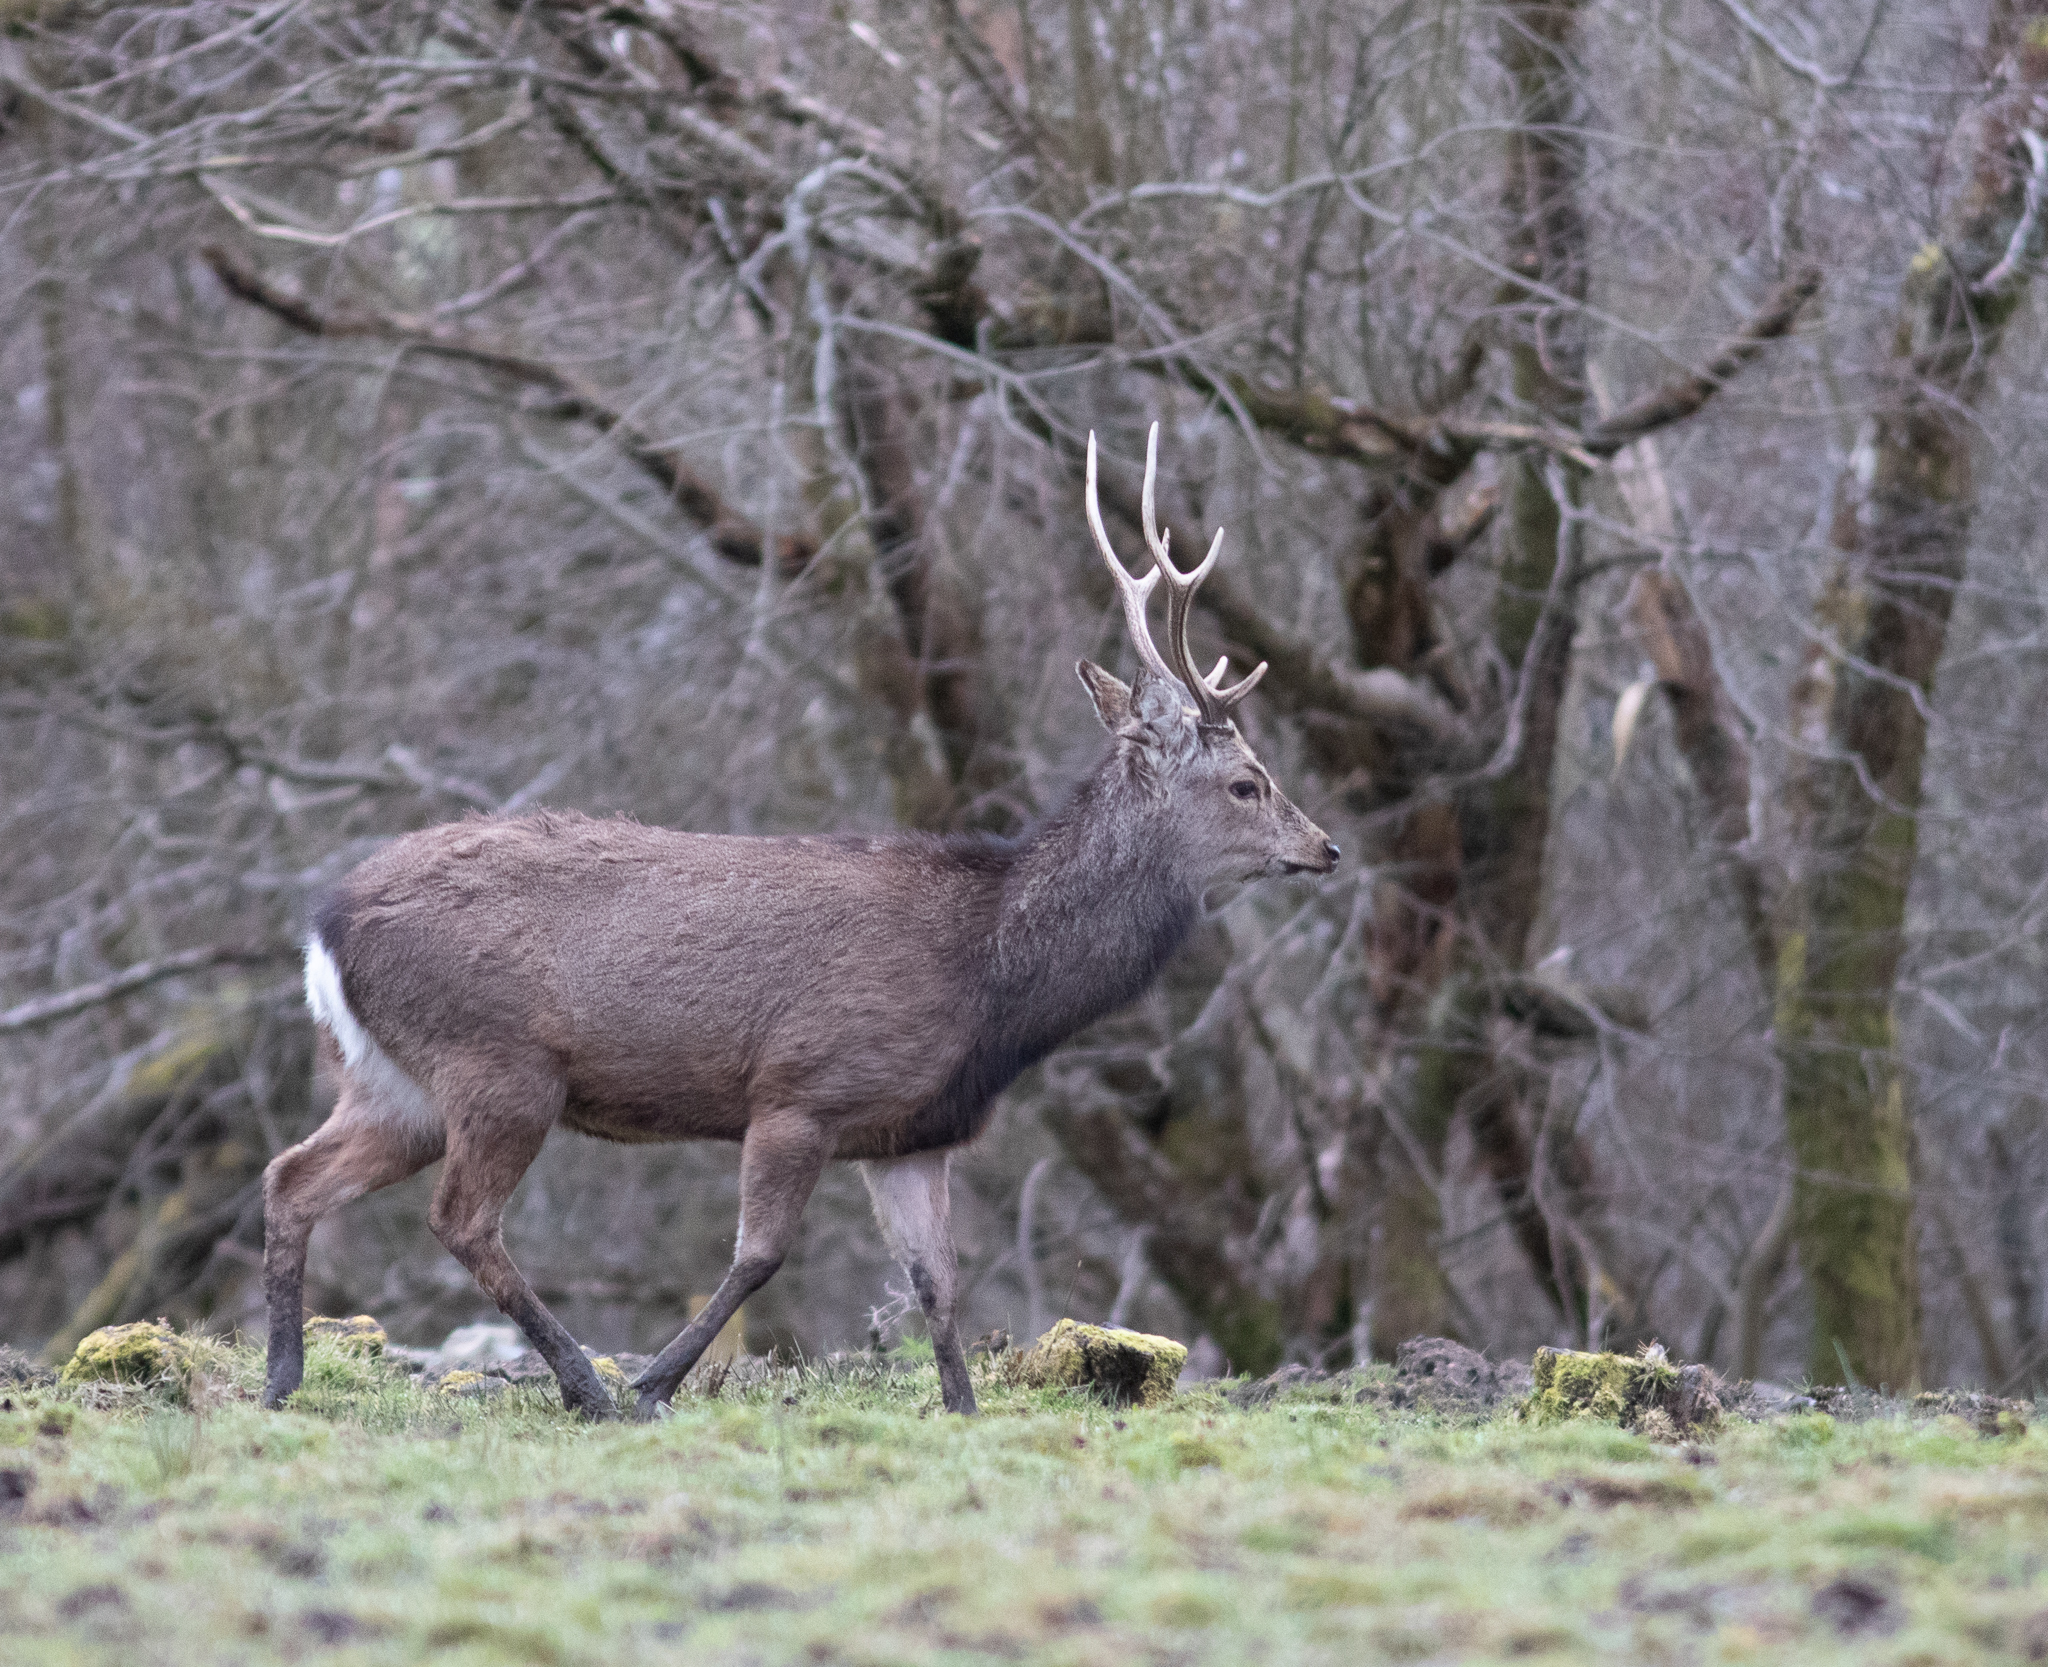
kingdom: Animalia
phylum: Chordata
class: Mammalia
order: Artiodactyla
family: Cervidae
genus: Cervus
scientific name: Cervus nippon
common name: Sika deer
